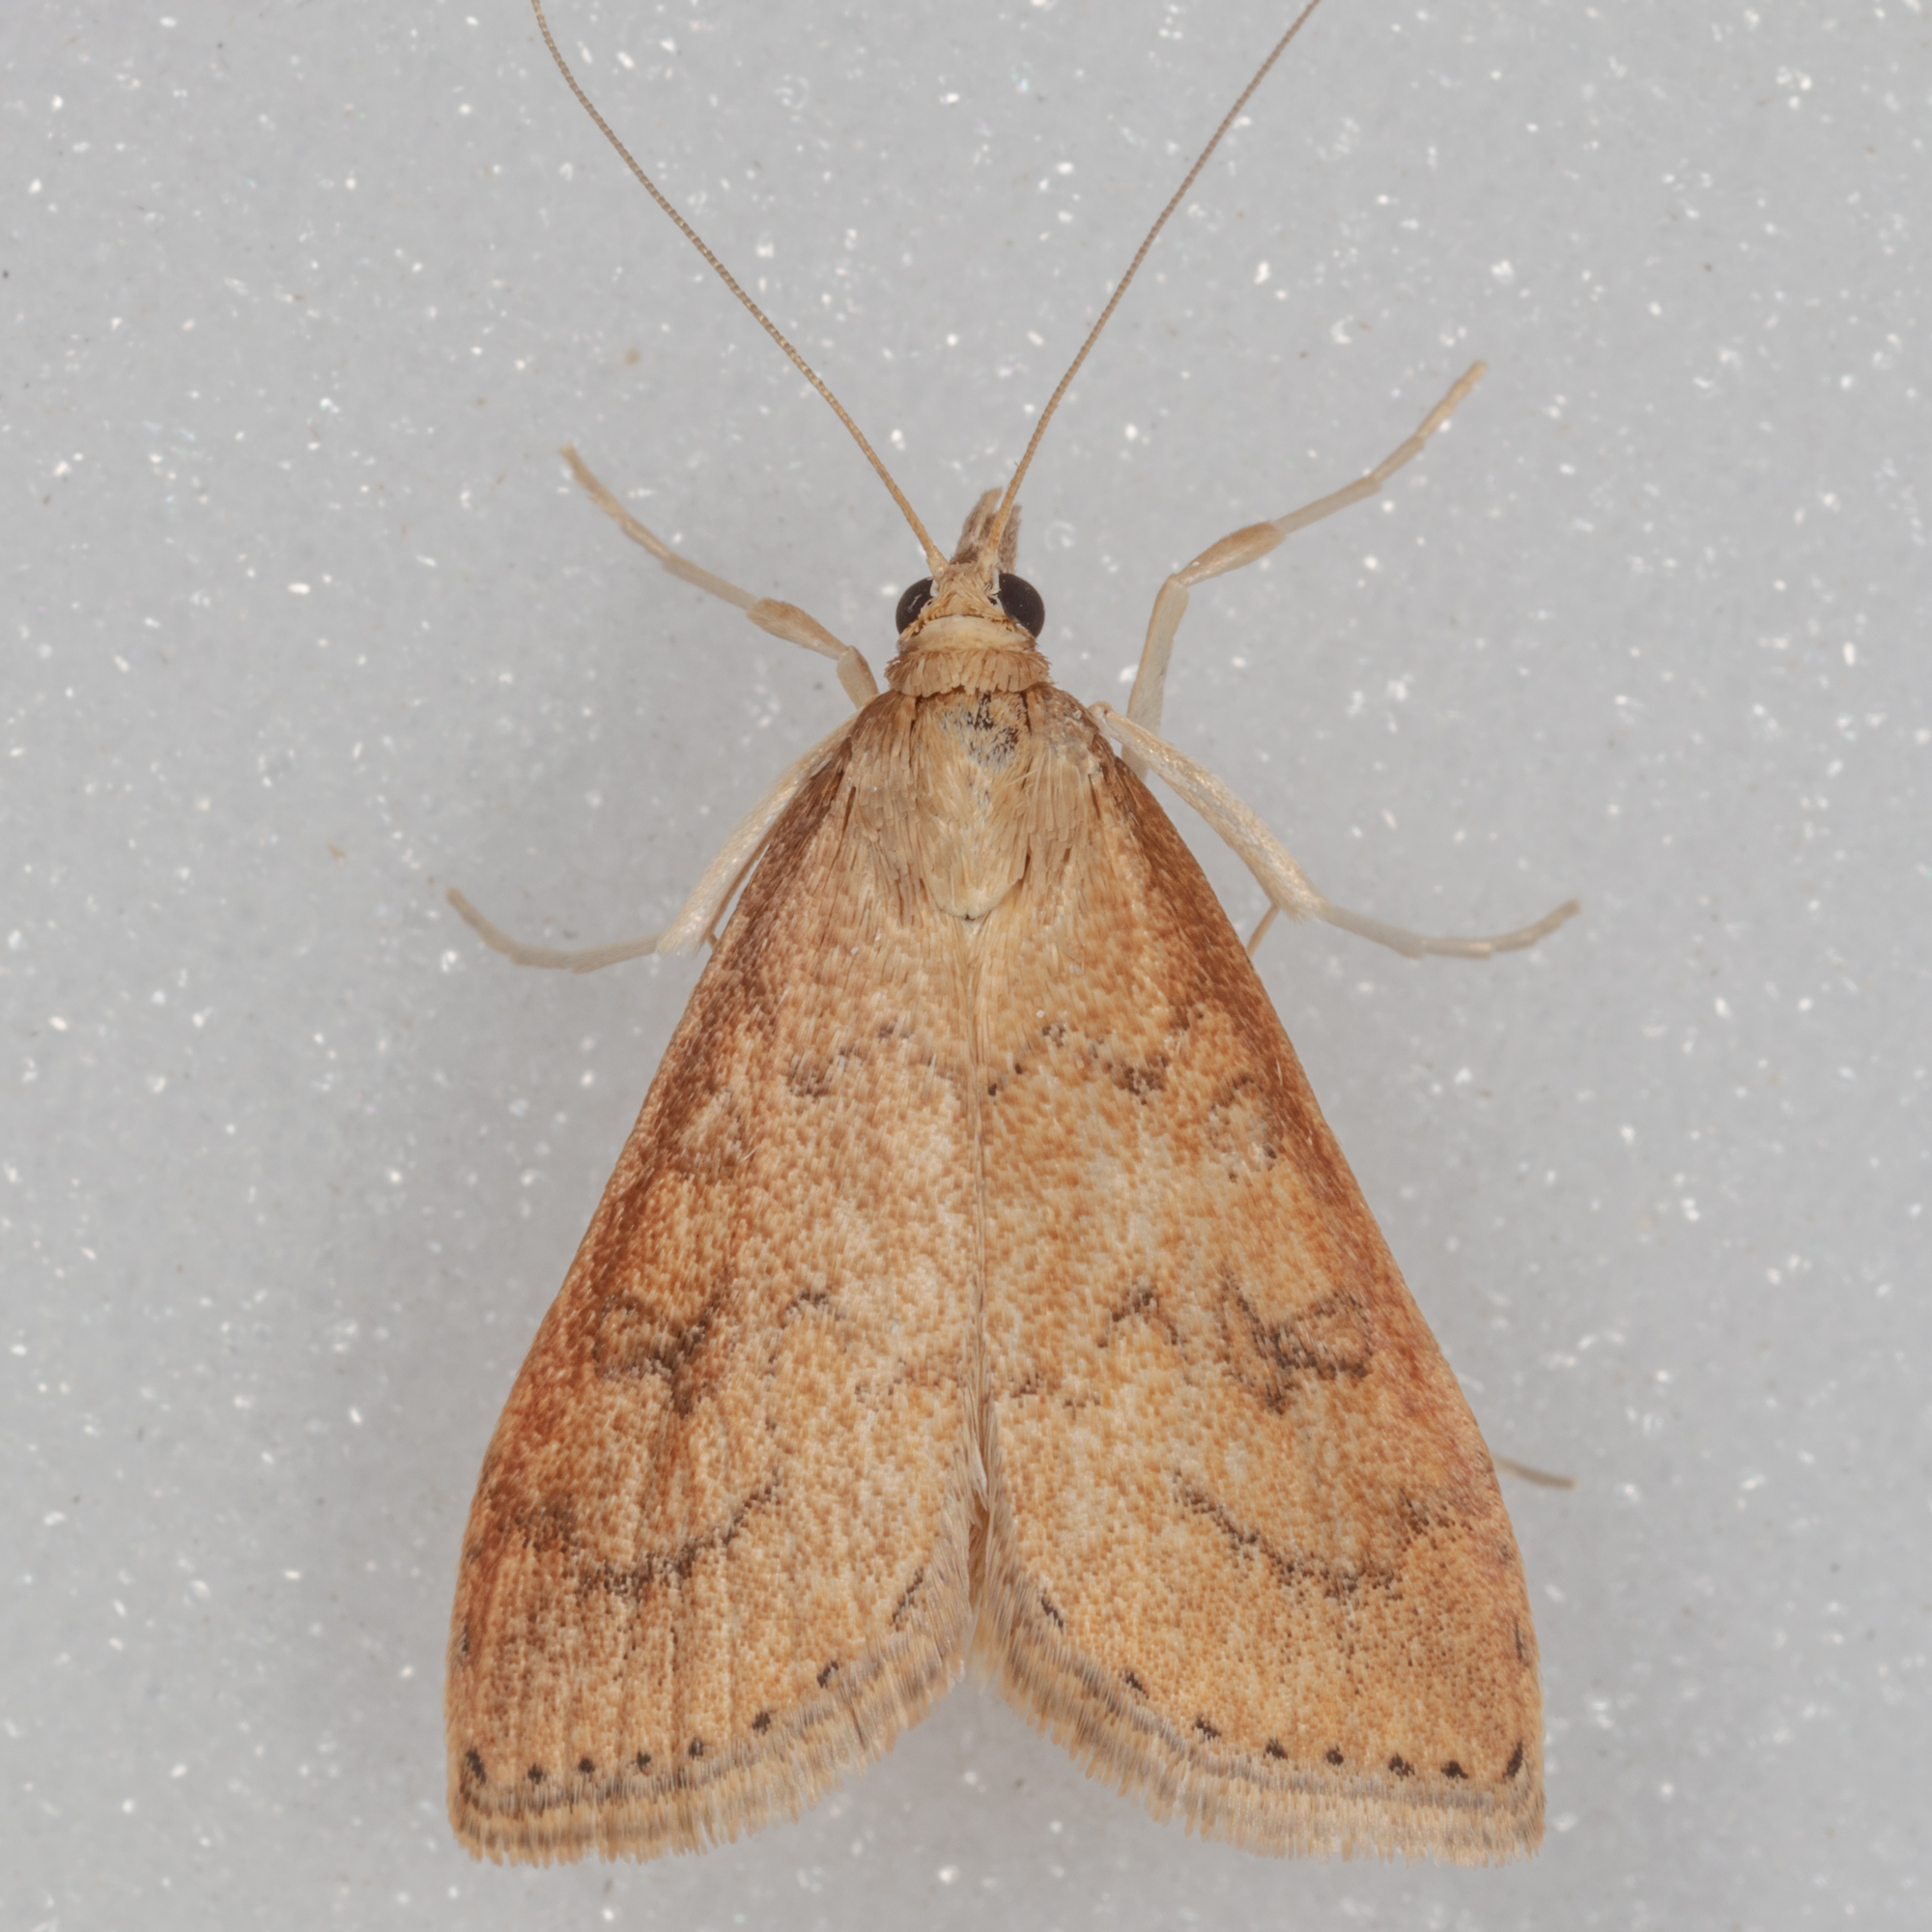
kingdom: Animalia
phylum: Arthropoda
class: Insecta
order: Lepidoptera
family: Crambidae
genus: Udea
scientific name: Udea rubigalis
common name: Celery leaftier moth
